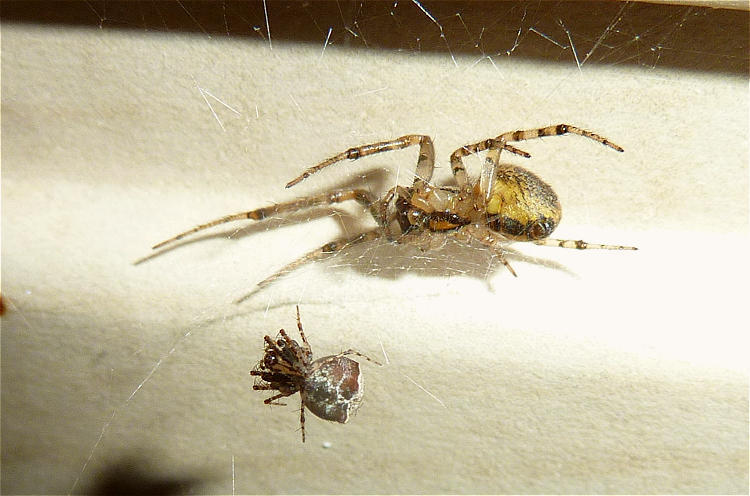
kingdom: Animalia
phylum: Arthropoda
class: Arachnida
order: Araneae
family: Mimetidae
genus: Ero
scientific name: Ero tuberculata
